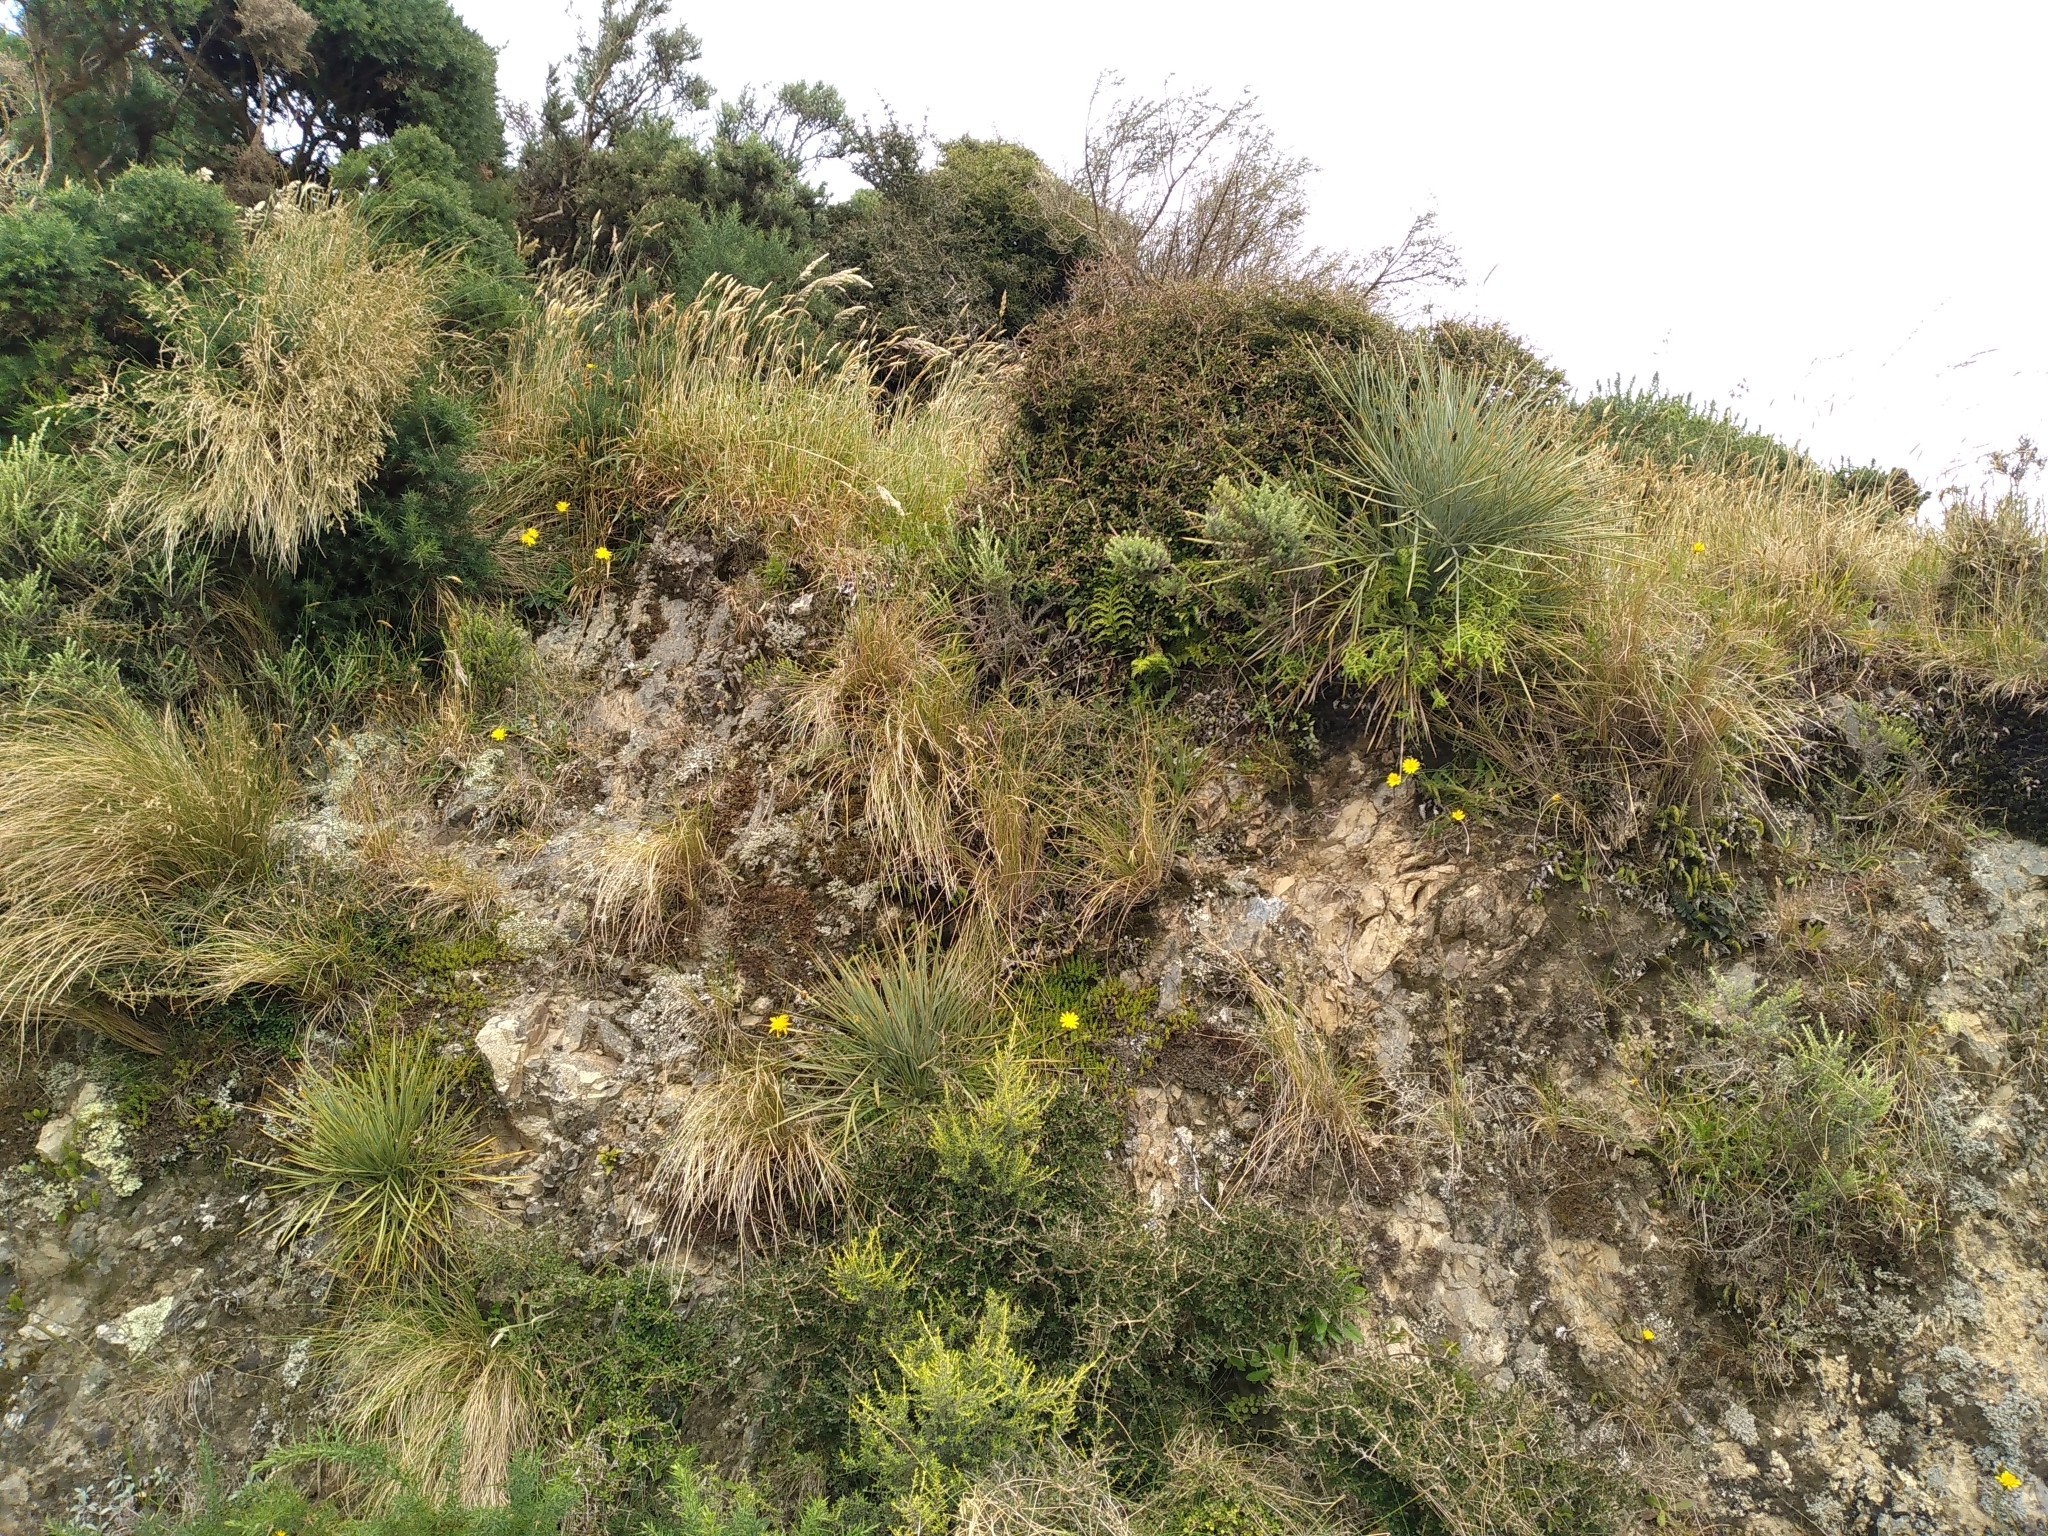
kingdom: Plantae
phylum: Tracheophyta
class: Magnoliopsida
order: Apiales
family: Apiaceae
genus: Aciphylla
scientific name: Aciphylla squarrosa
